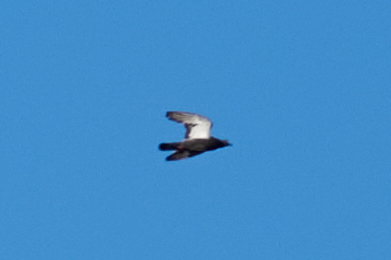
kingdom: Animalia
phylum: Chordata
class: Aves
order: Columbiformes
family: Columbidae
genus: Columba
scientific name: Columba livia
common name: Rock pigeon
